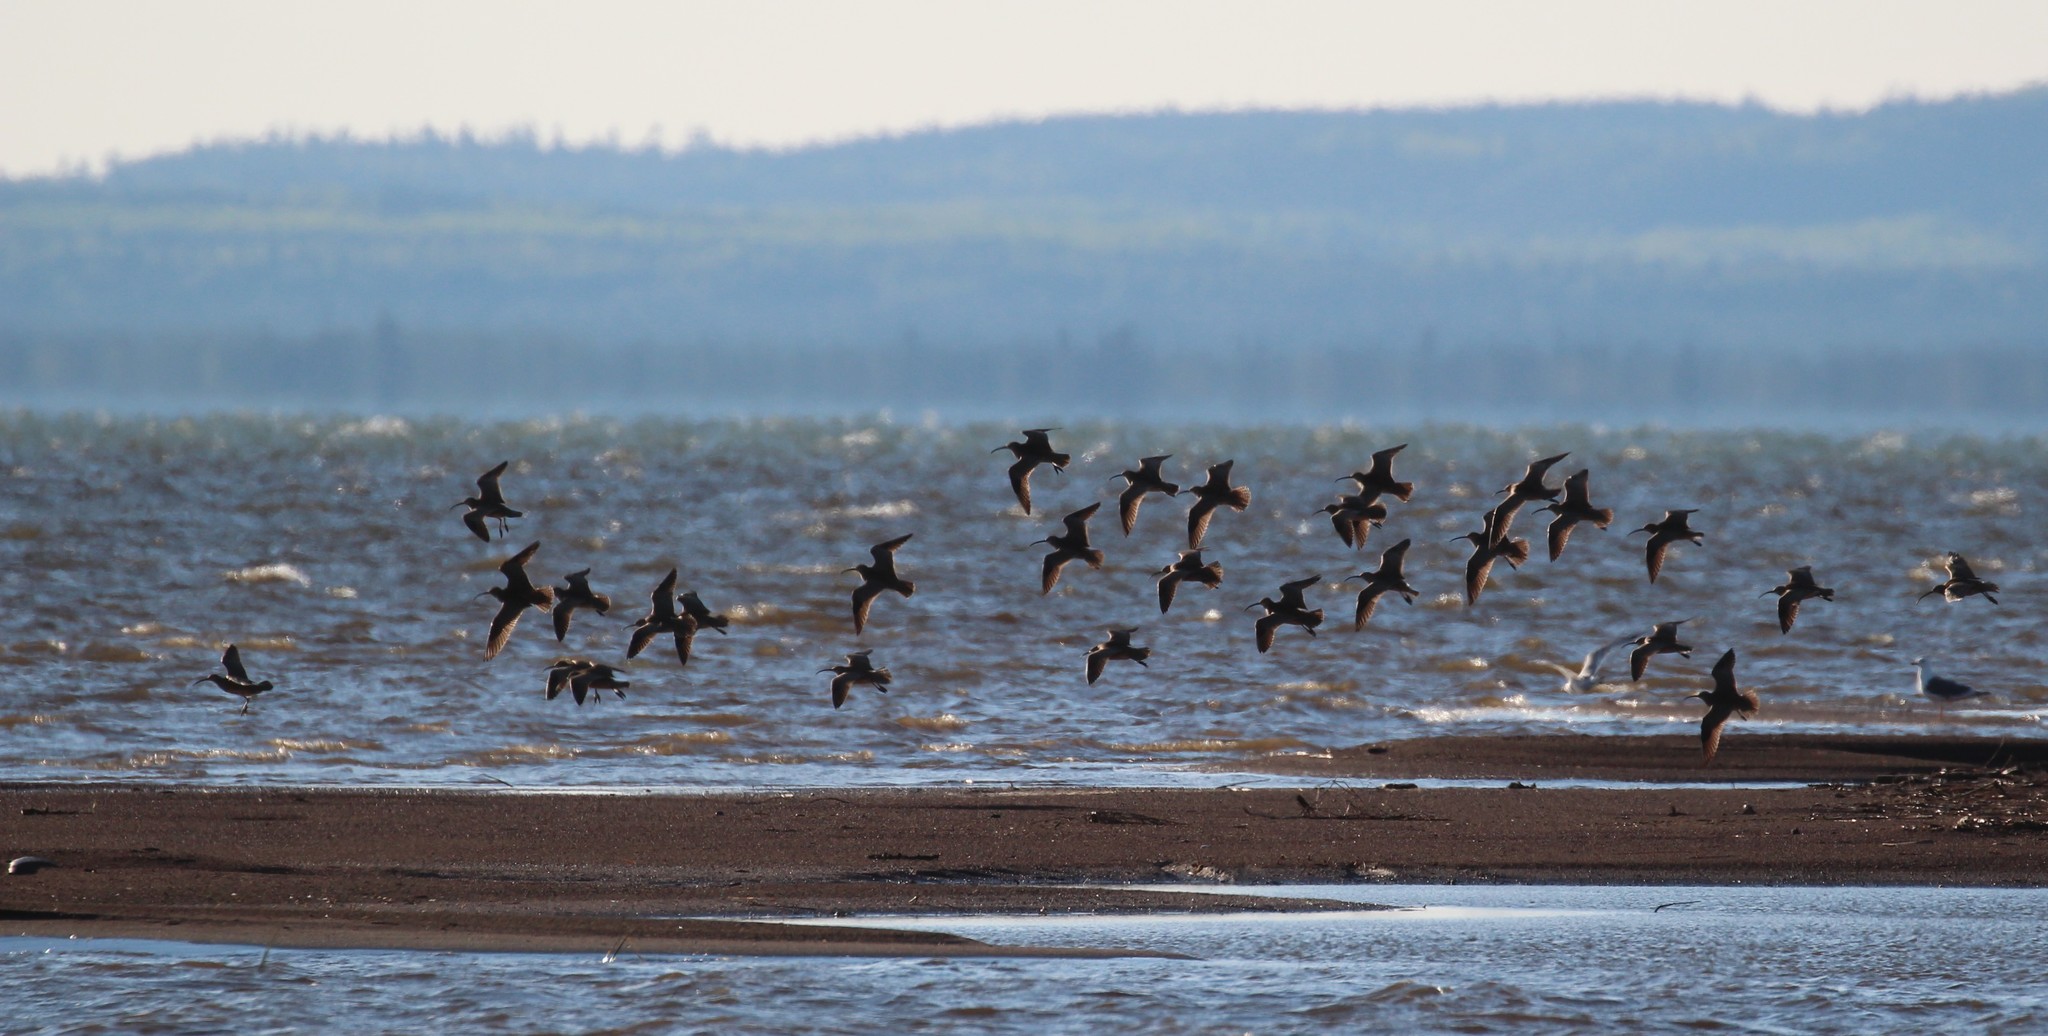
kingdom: Animalia
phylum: Chordata
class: Aves
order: Charadriiformes
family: Scolopacidae
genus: Numenius
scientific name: Numenius phaeopus
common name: Whimbrel
